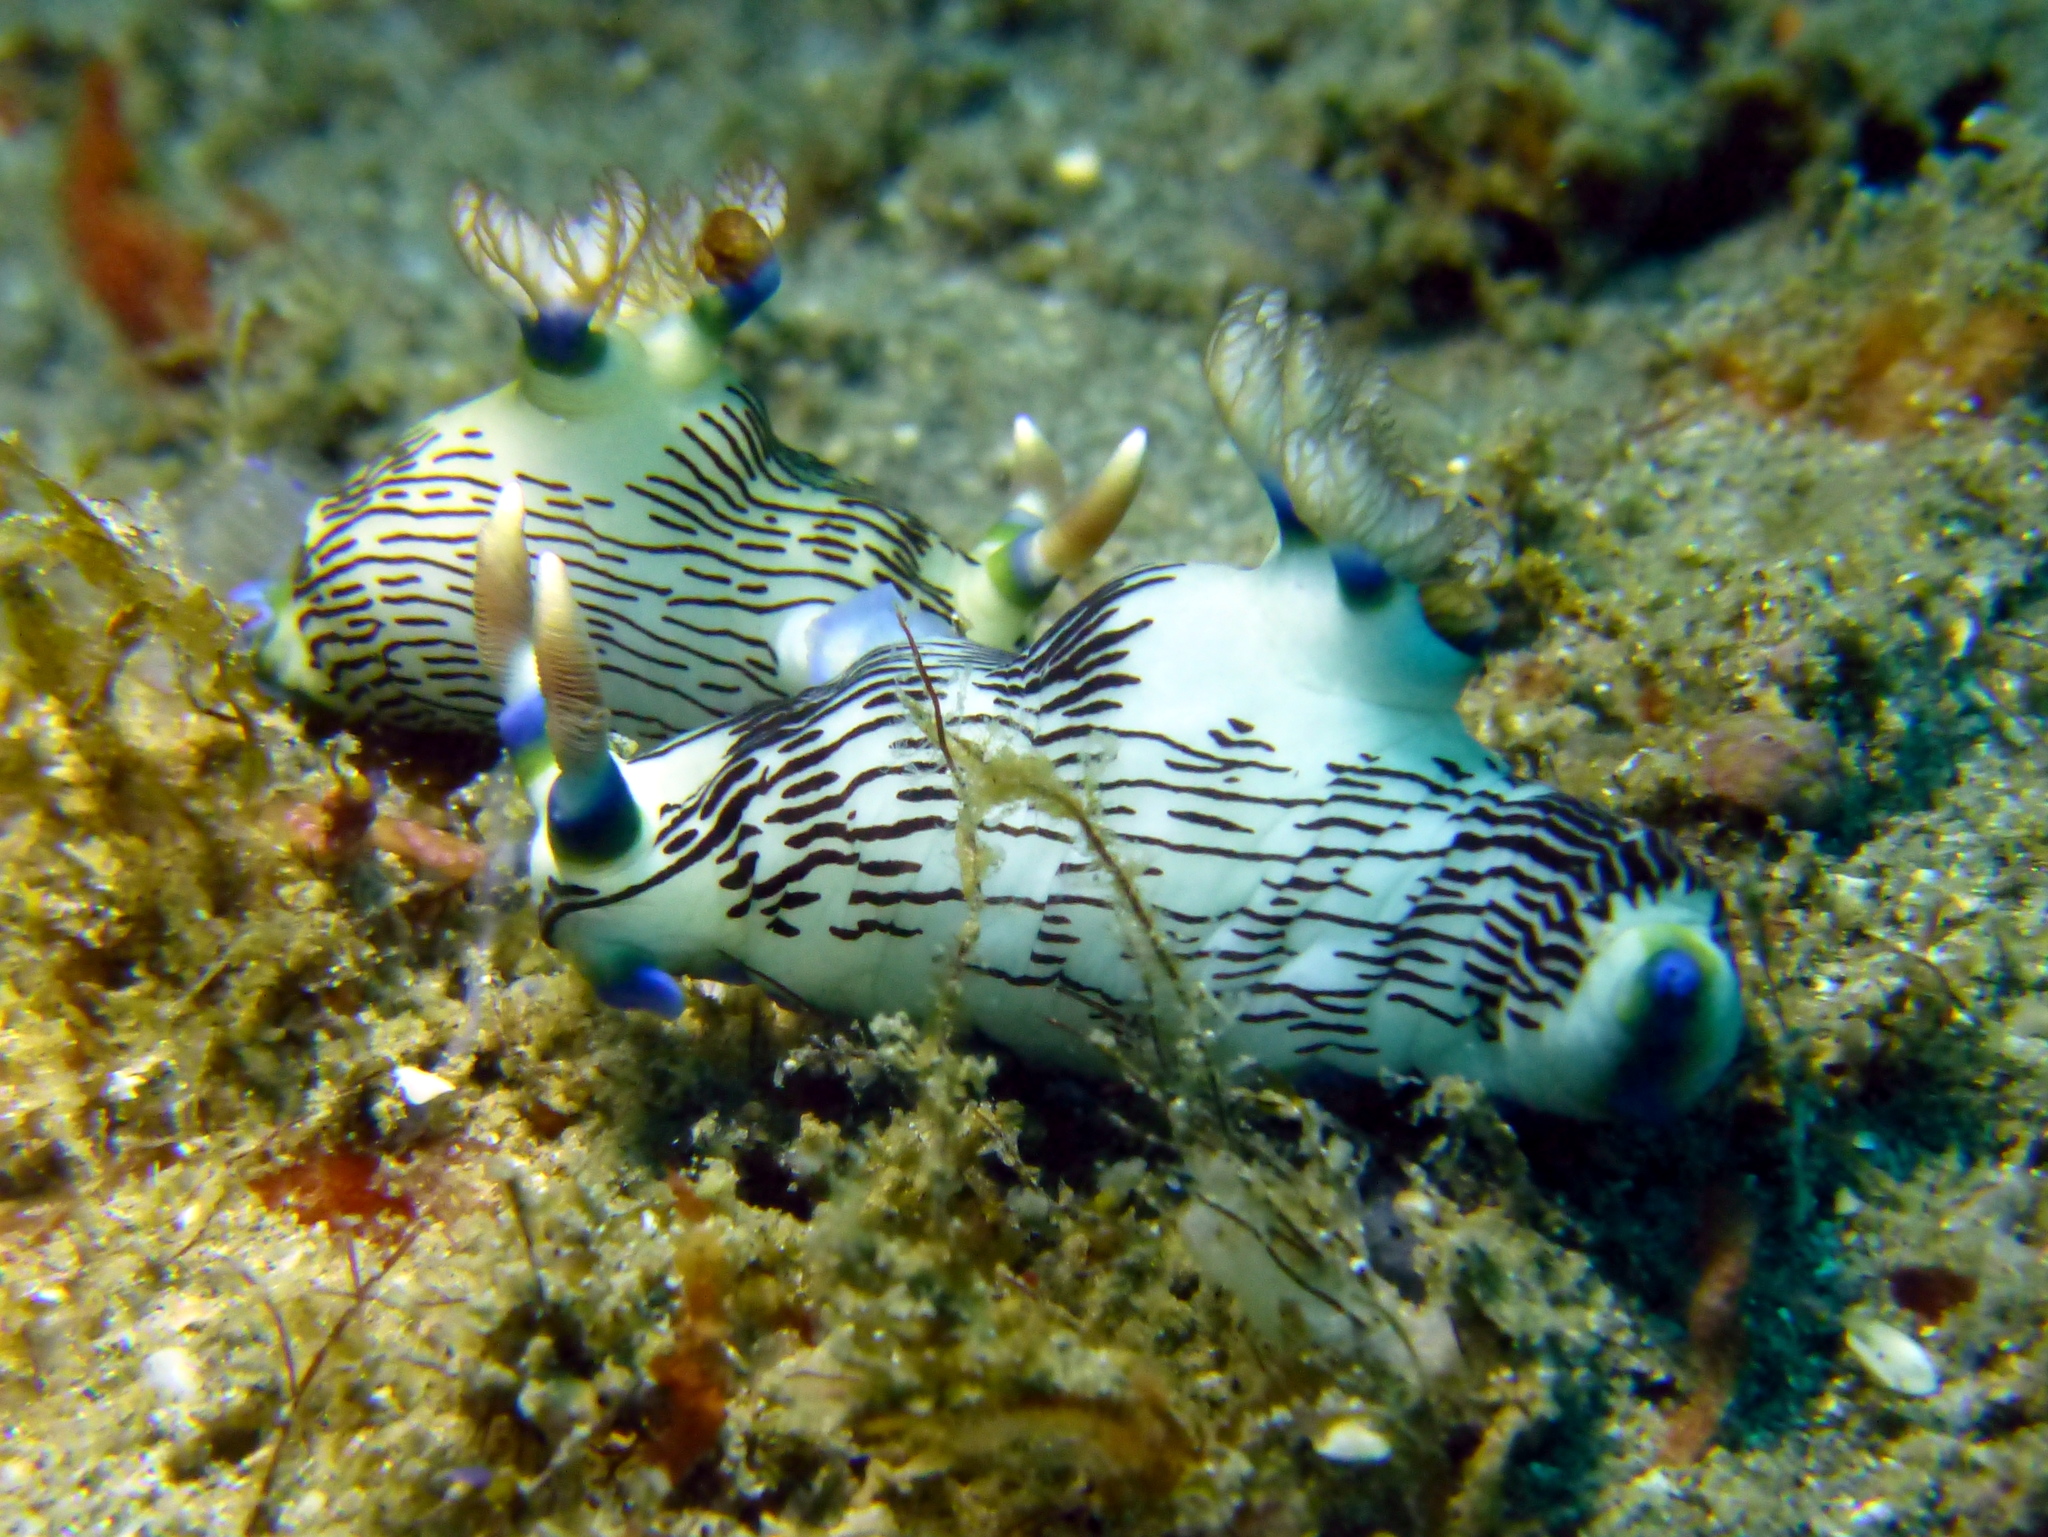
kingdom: Animalia
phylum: Mollusca
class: Gastropoda
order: Nudibranchia
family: Polyceridae
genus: Nembrotha
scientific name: Nembrotha lineolata
